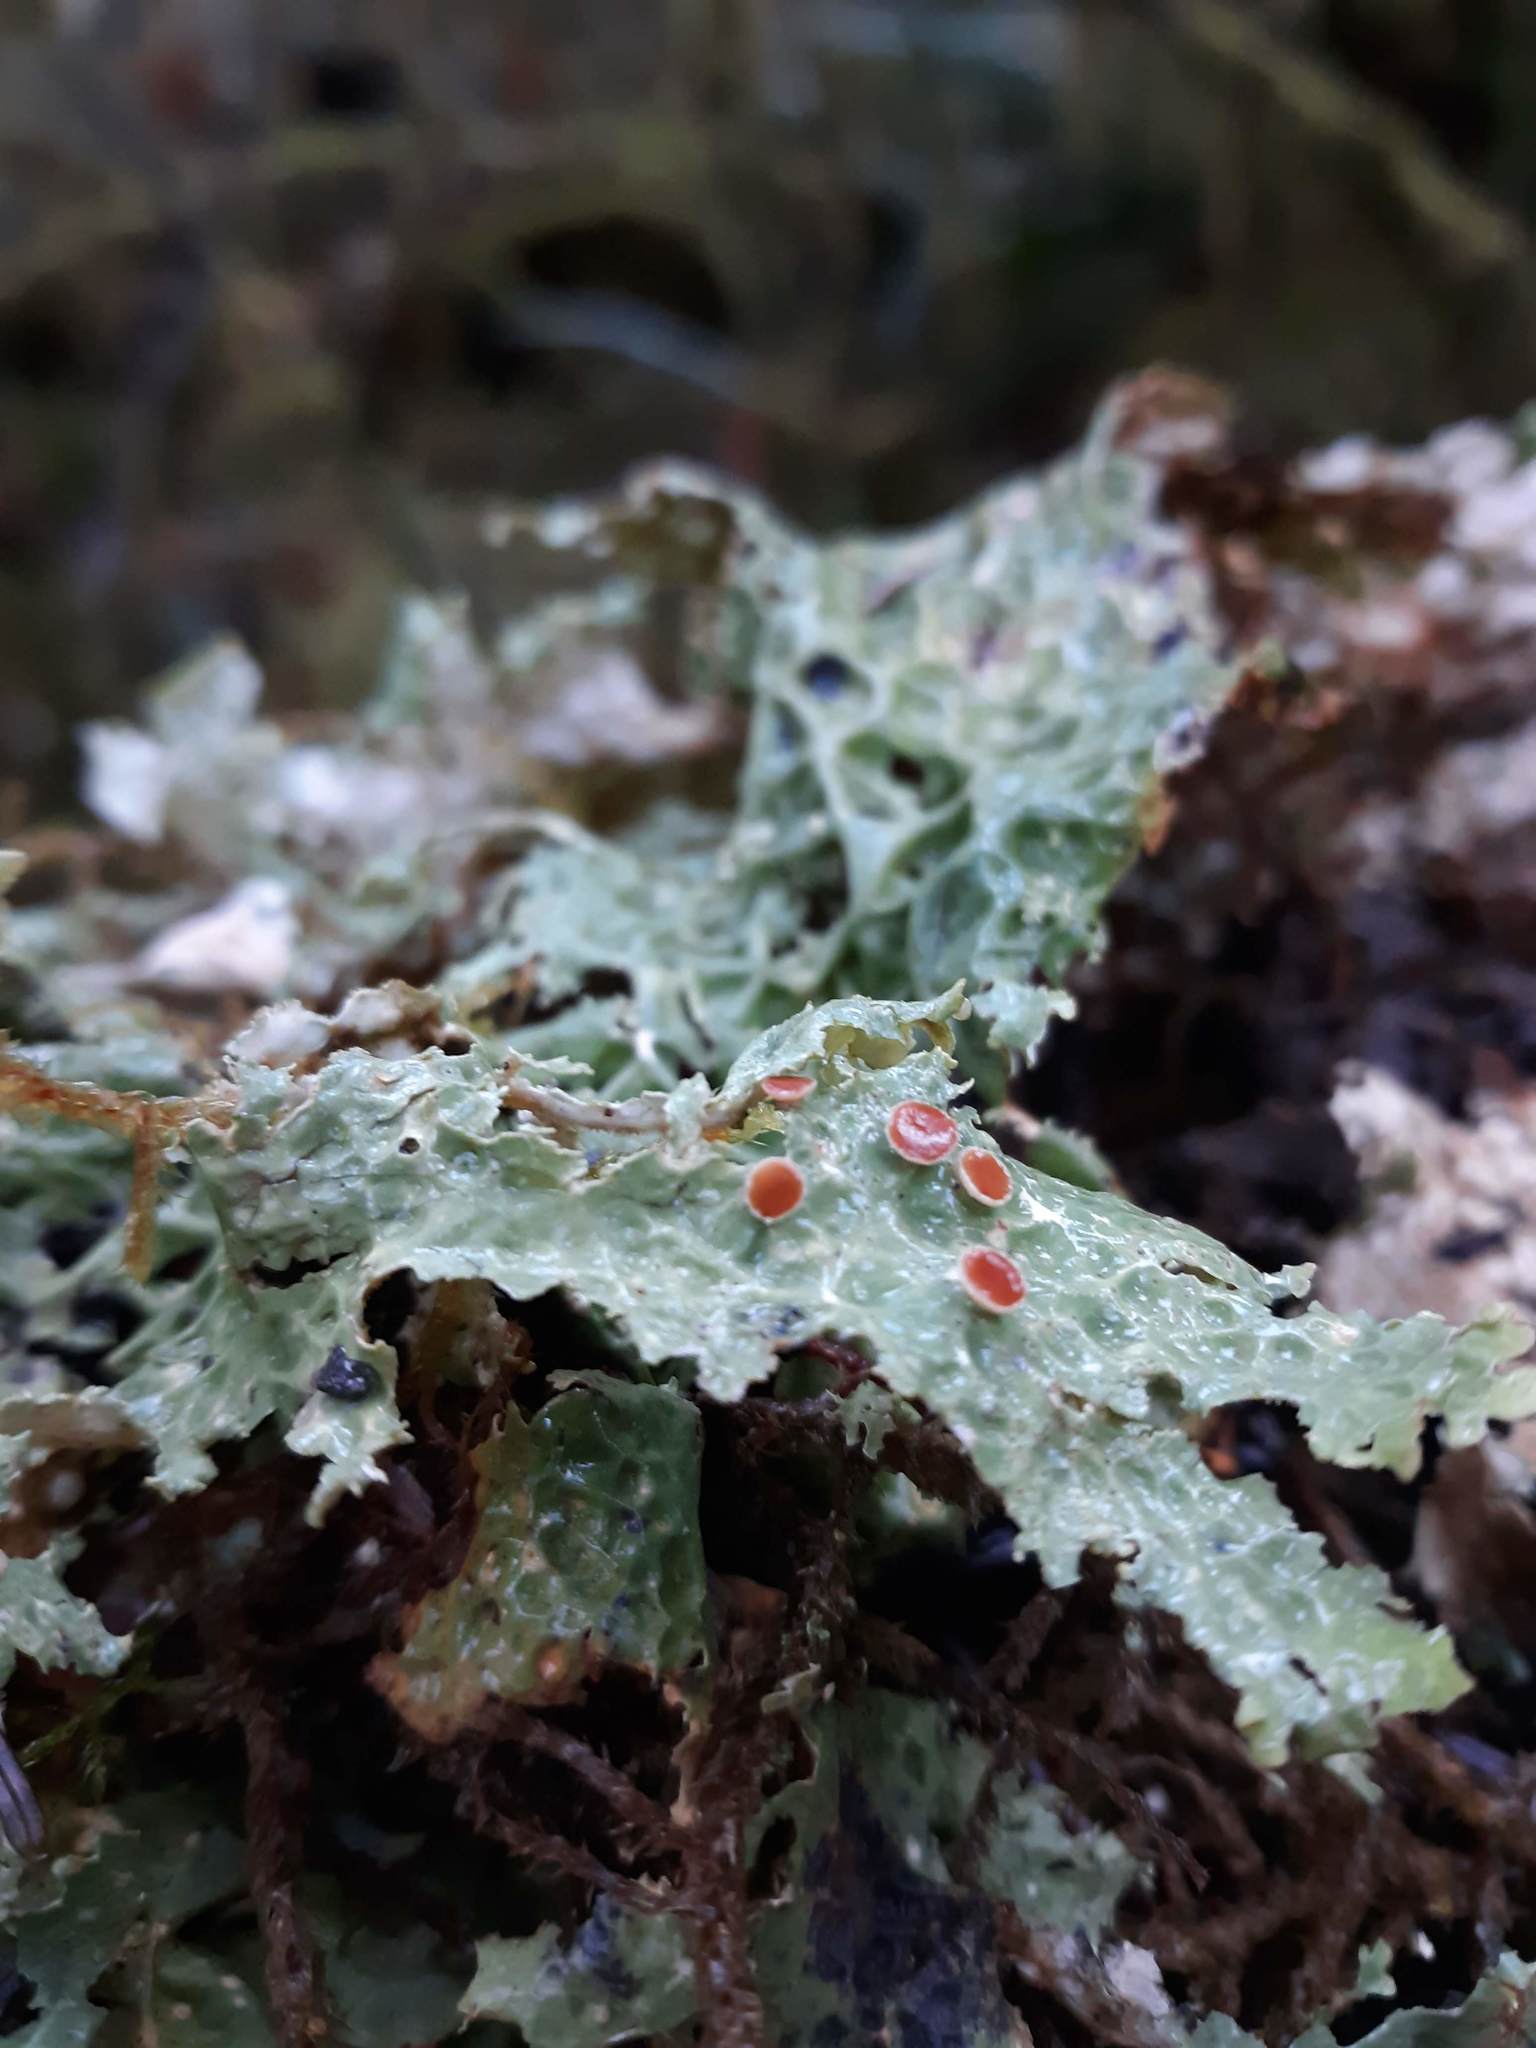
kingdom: Fungi
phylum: Ascomycota
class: Lecanoromycetes
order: Peltigerales
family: Lobariaceae
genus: Lobaria
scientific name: Lobaria oregana
